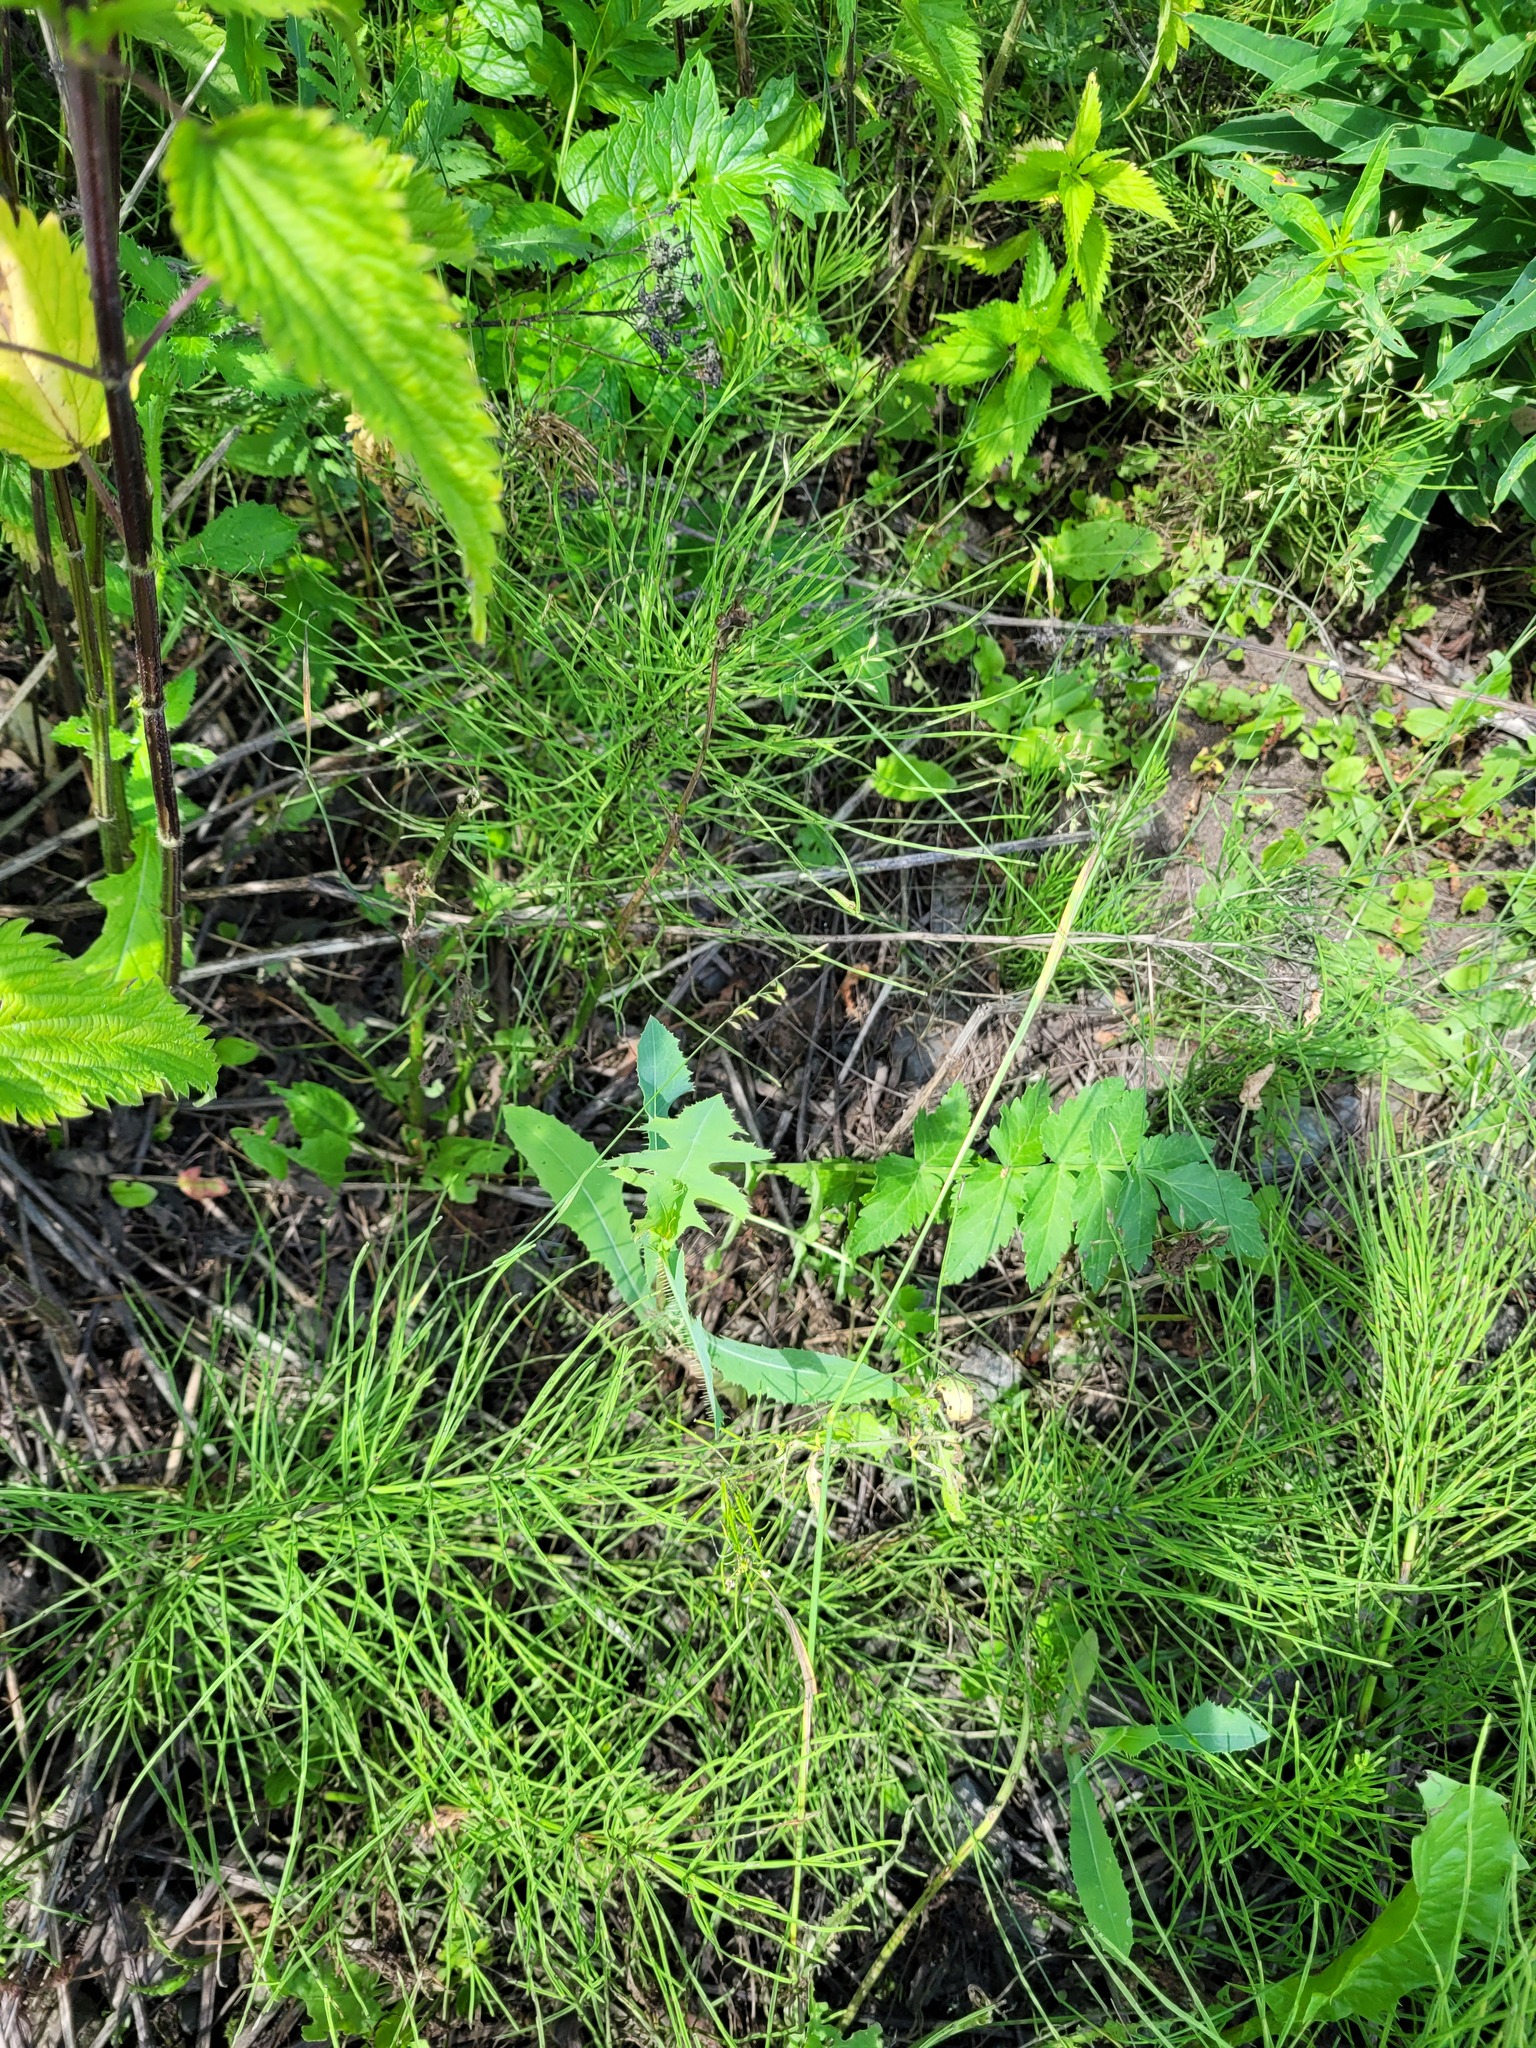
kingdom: Plantae
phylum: Tracheophyta
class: Magnoliopsida
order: Asterales
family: Asteraceae
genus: Lactuca
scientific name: Lactuca serriola
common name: Prickly lettuce
